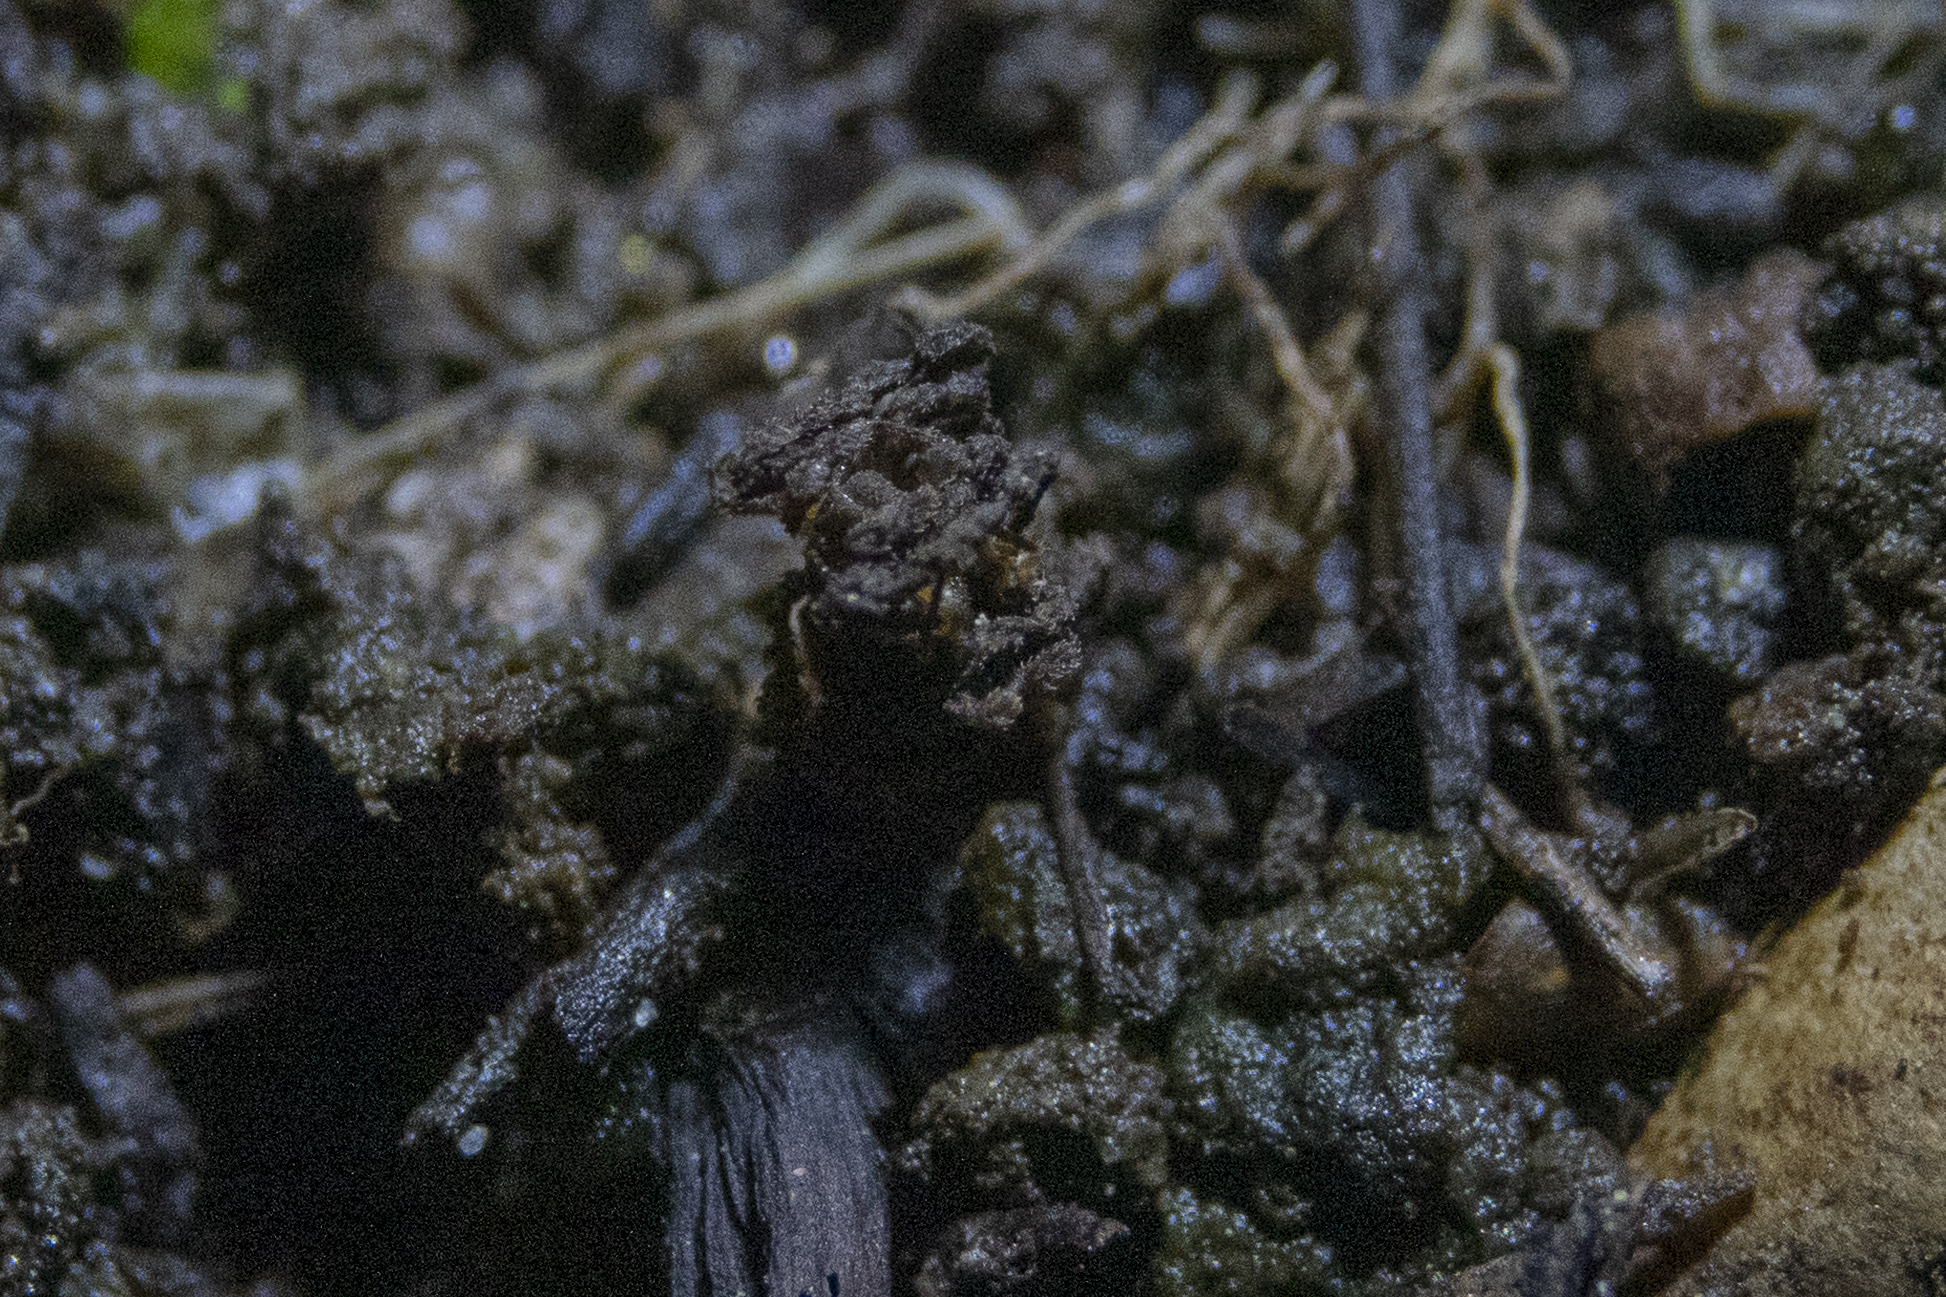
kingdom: Animalia
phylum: Arthropoda
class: Arachnida
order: Opiliones
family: Triaenonychidae
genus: Pristobunus
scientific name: Pristobunus acuminatus
